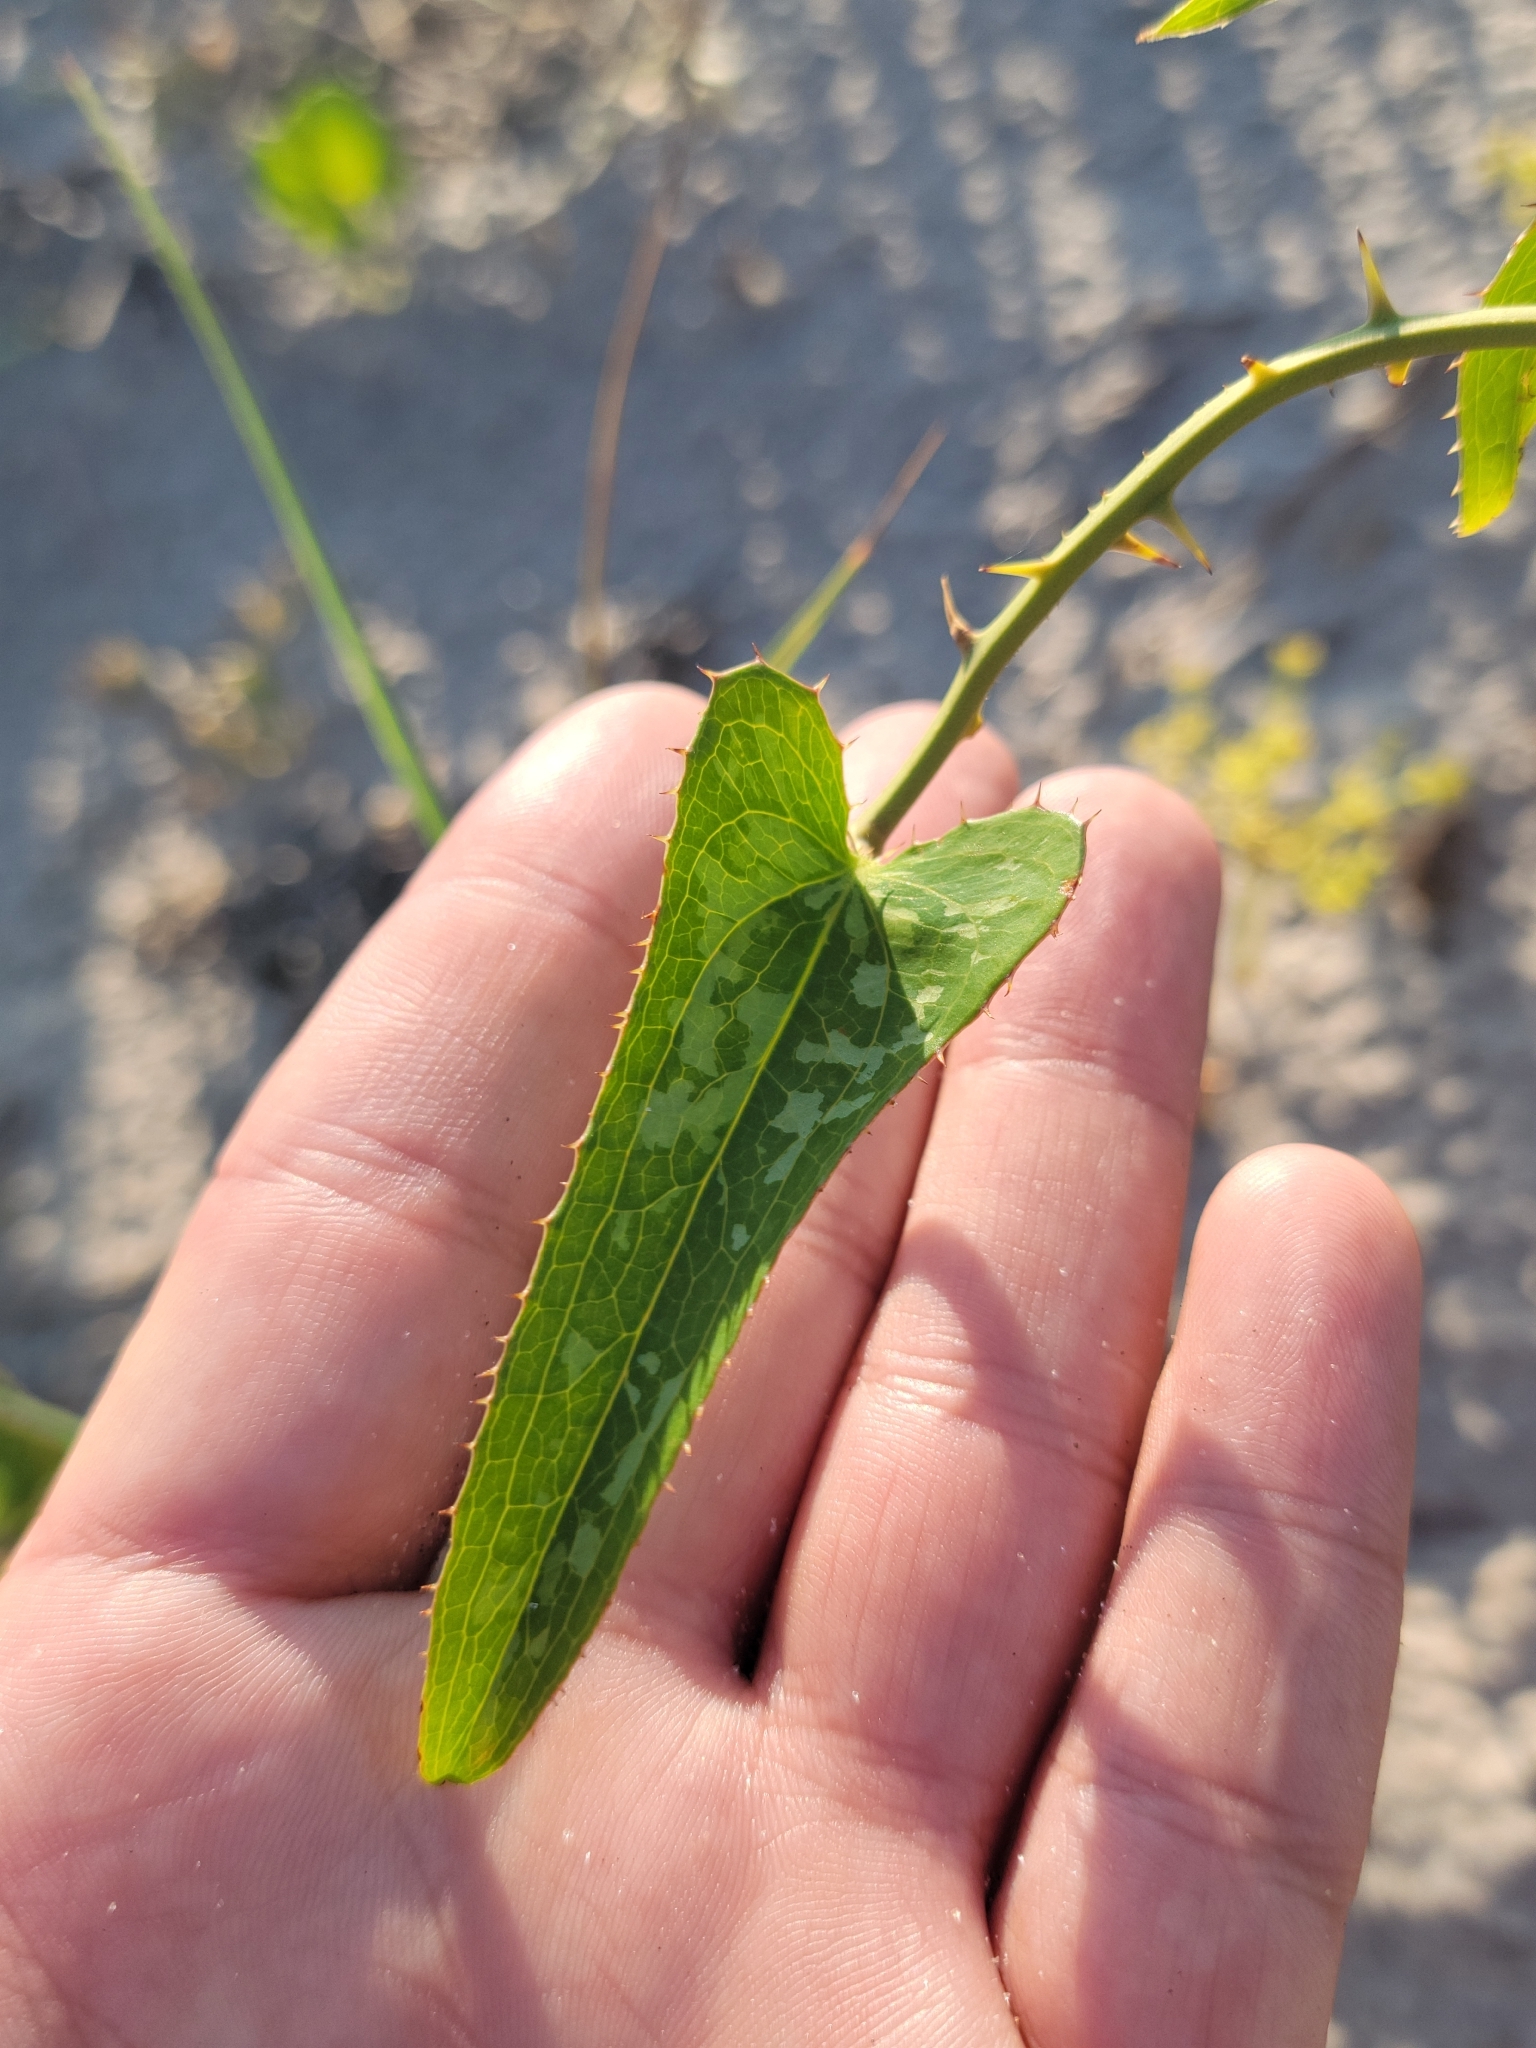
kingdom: Plantae
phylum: Tracheophyta
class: Liliopsida
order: Liliales
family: Smilacaceae
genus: Smilax
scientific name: Smilax bona-nox
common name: Catbrier
